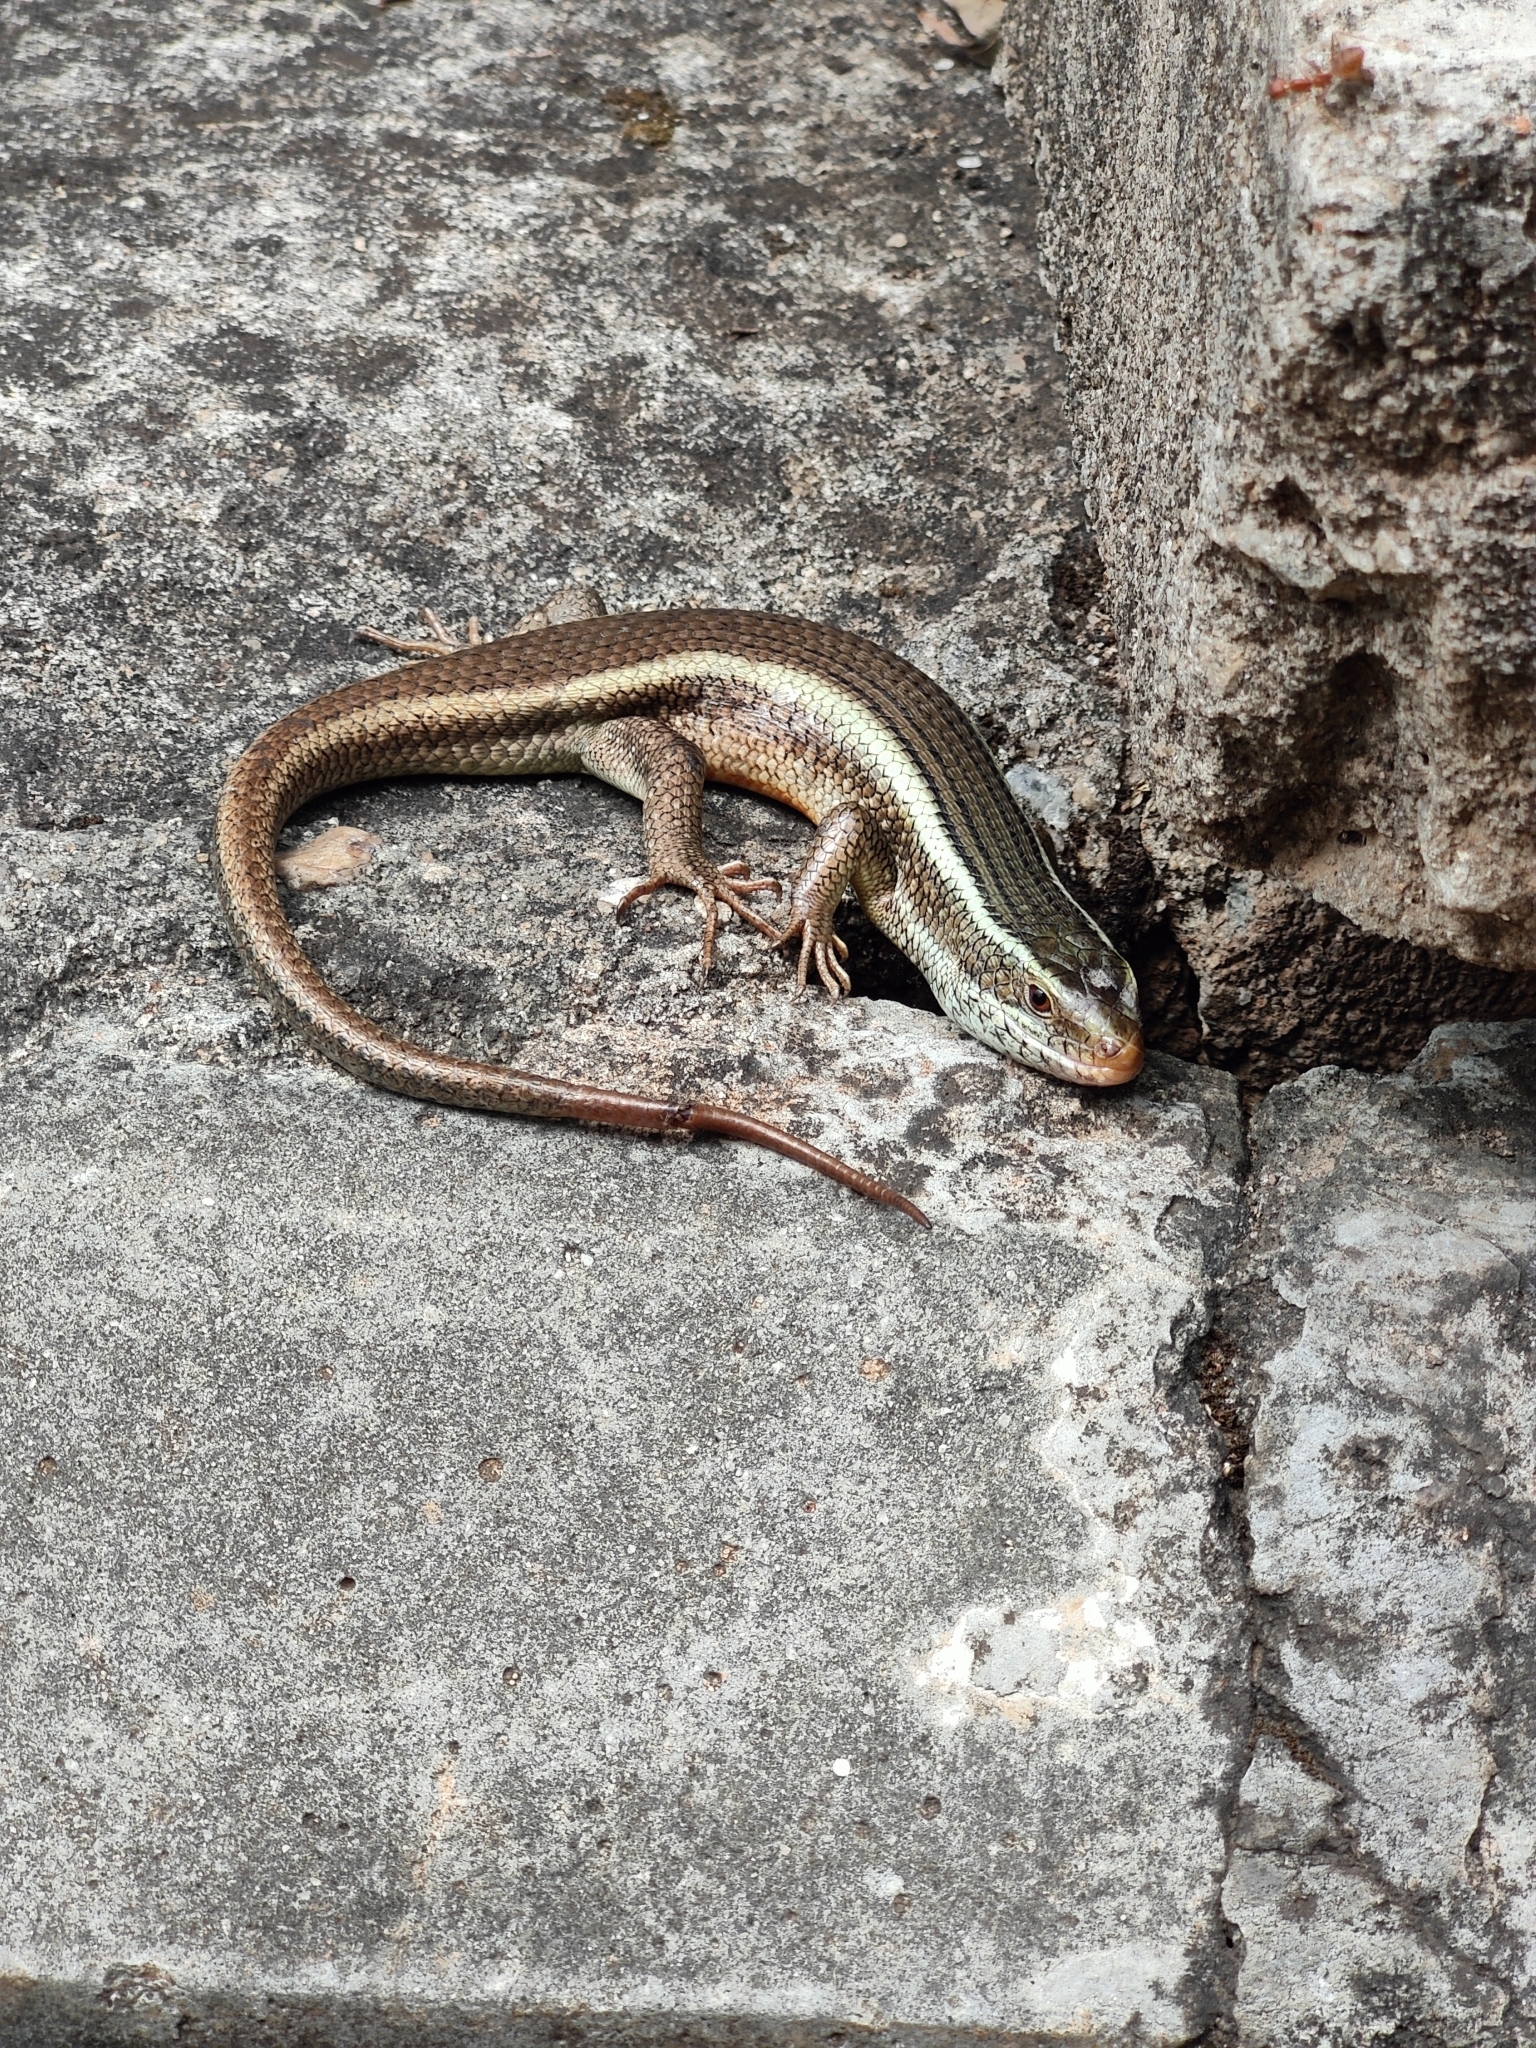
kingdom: Animalia
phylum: Chordata
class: Squamata
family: Scincidae
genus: Eutropis
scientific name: Eutropis carinata
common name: Keeled indian mabuya
